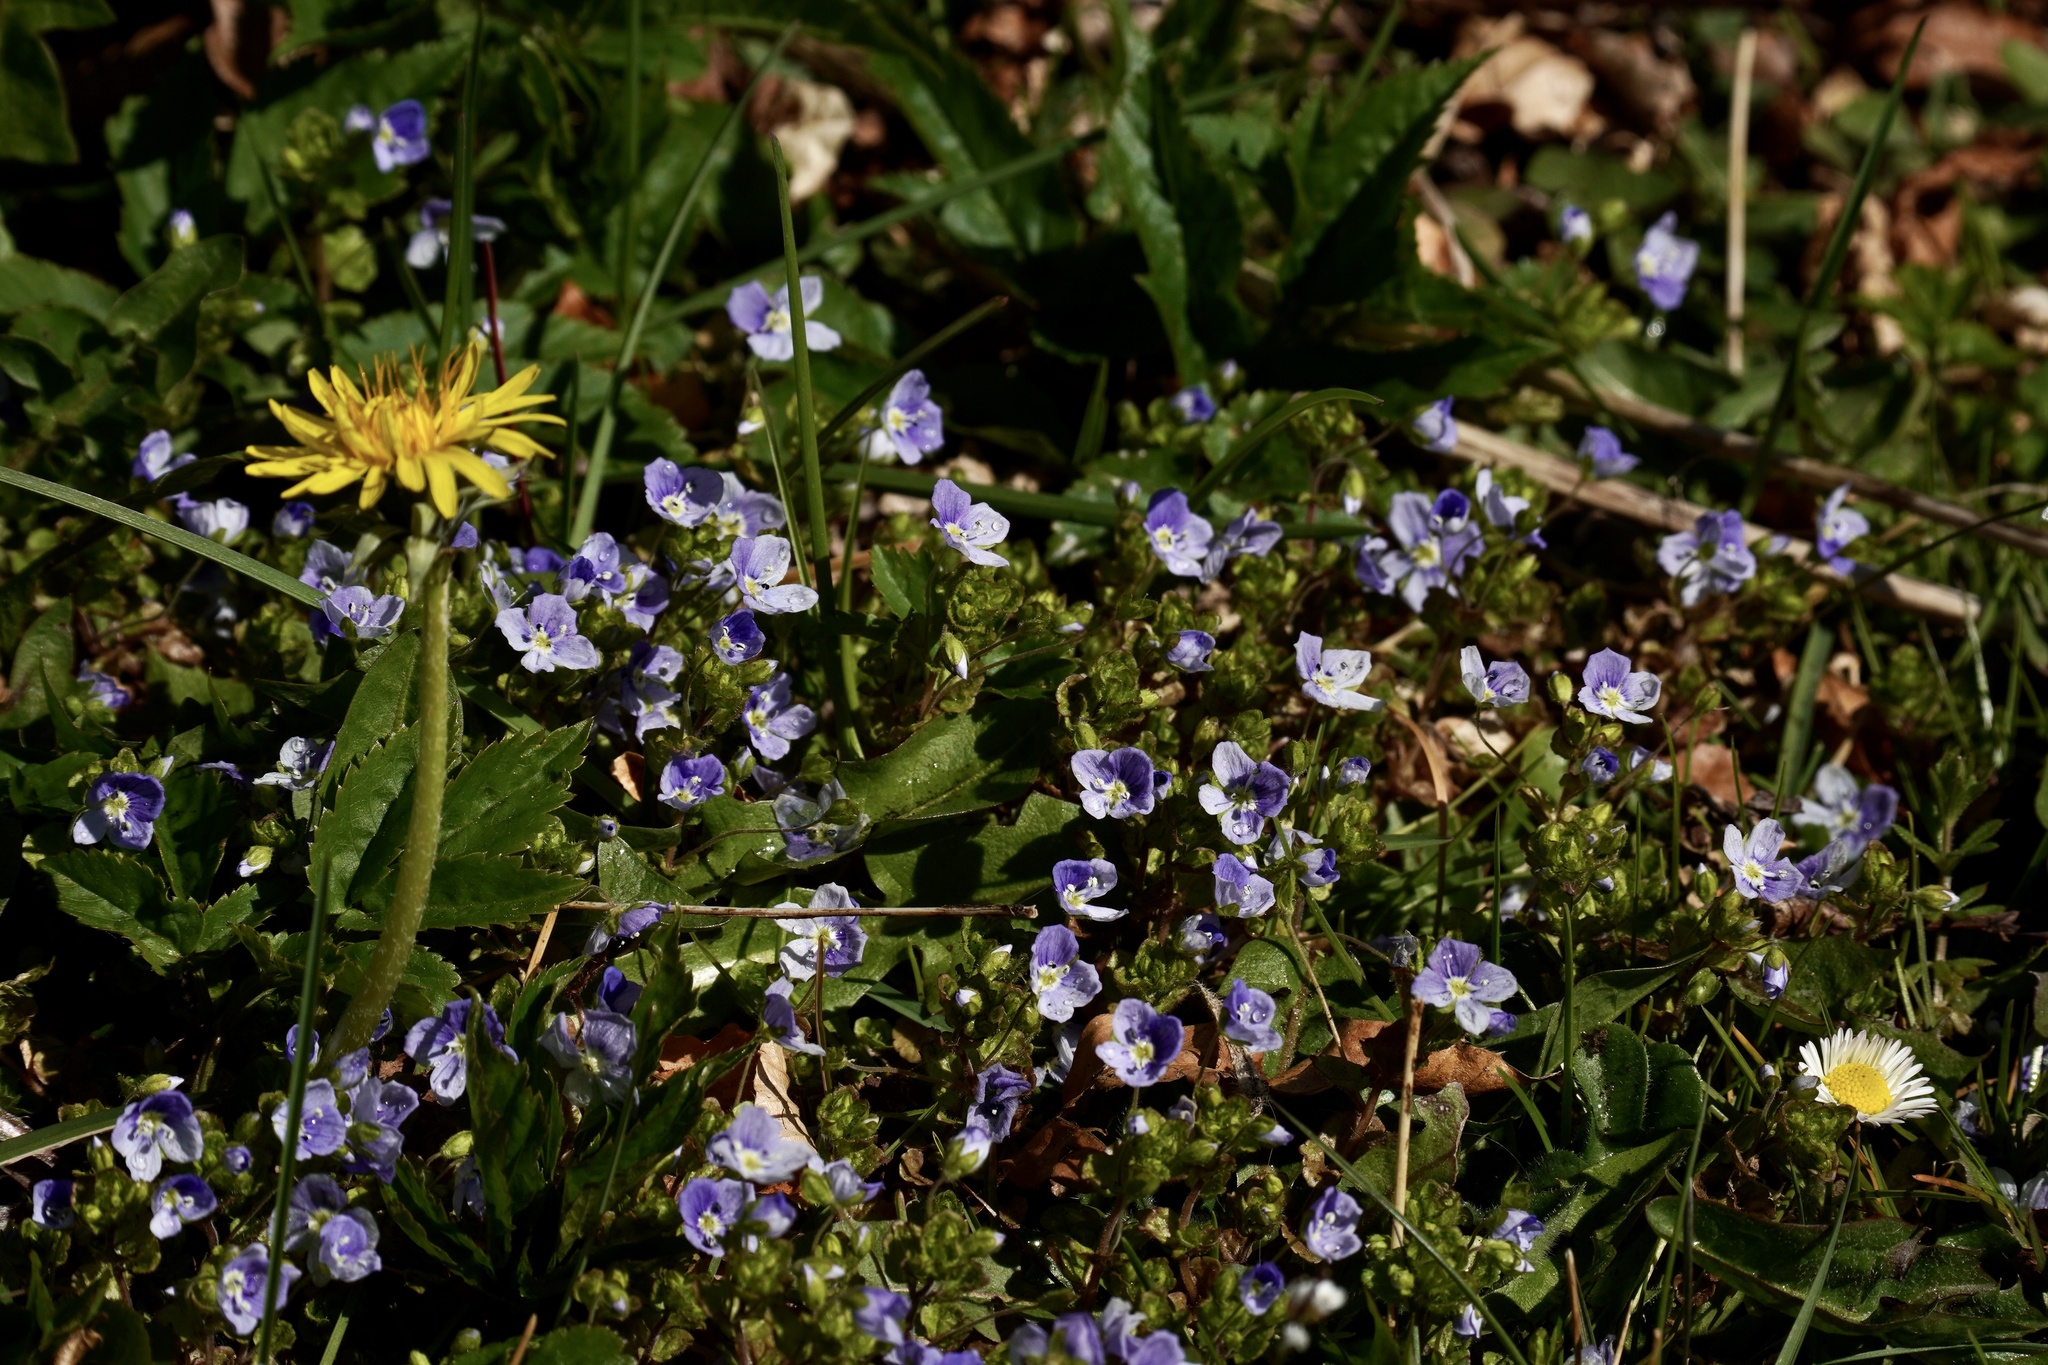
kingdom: Plantae
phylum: Tracheophyta
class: Magnoliopsida
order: Lamiales
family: Plantaginaceae
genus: Veronica
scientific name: Veronica filiformis
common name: Slender speedwell
